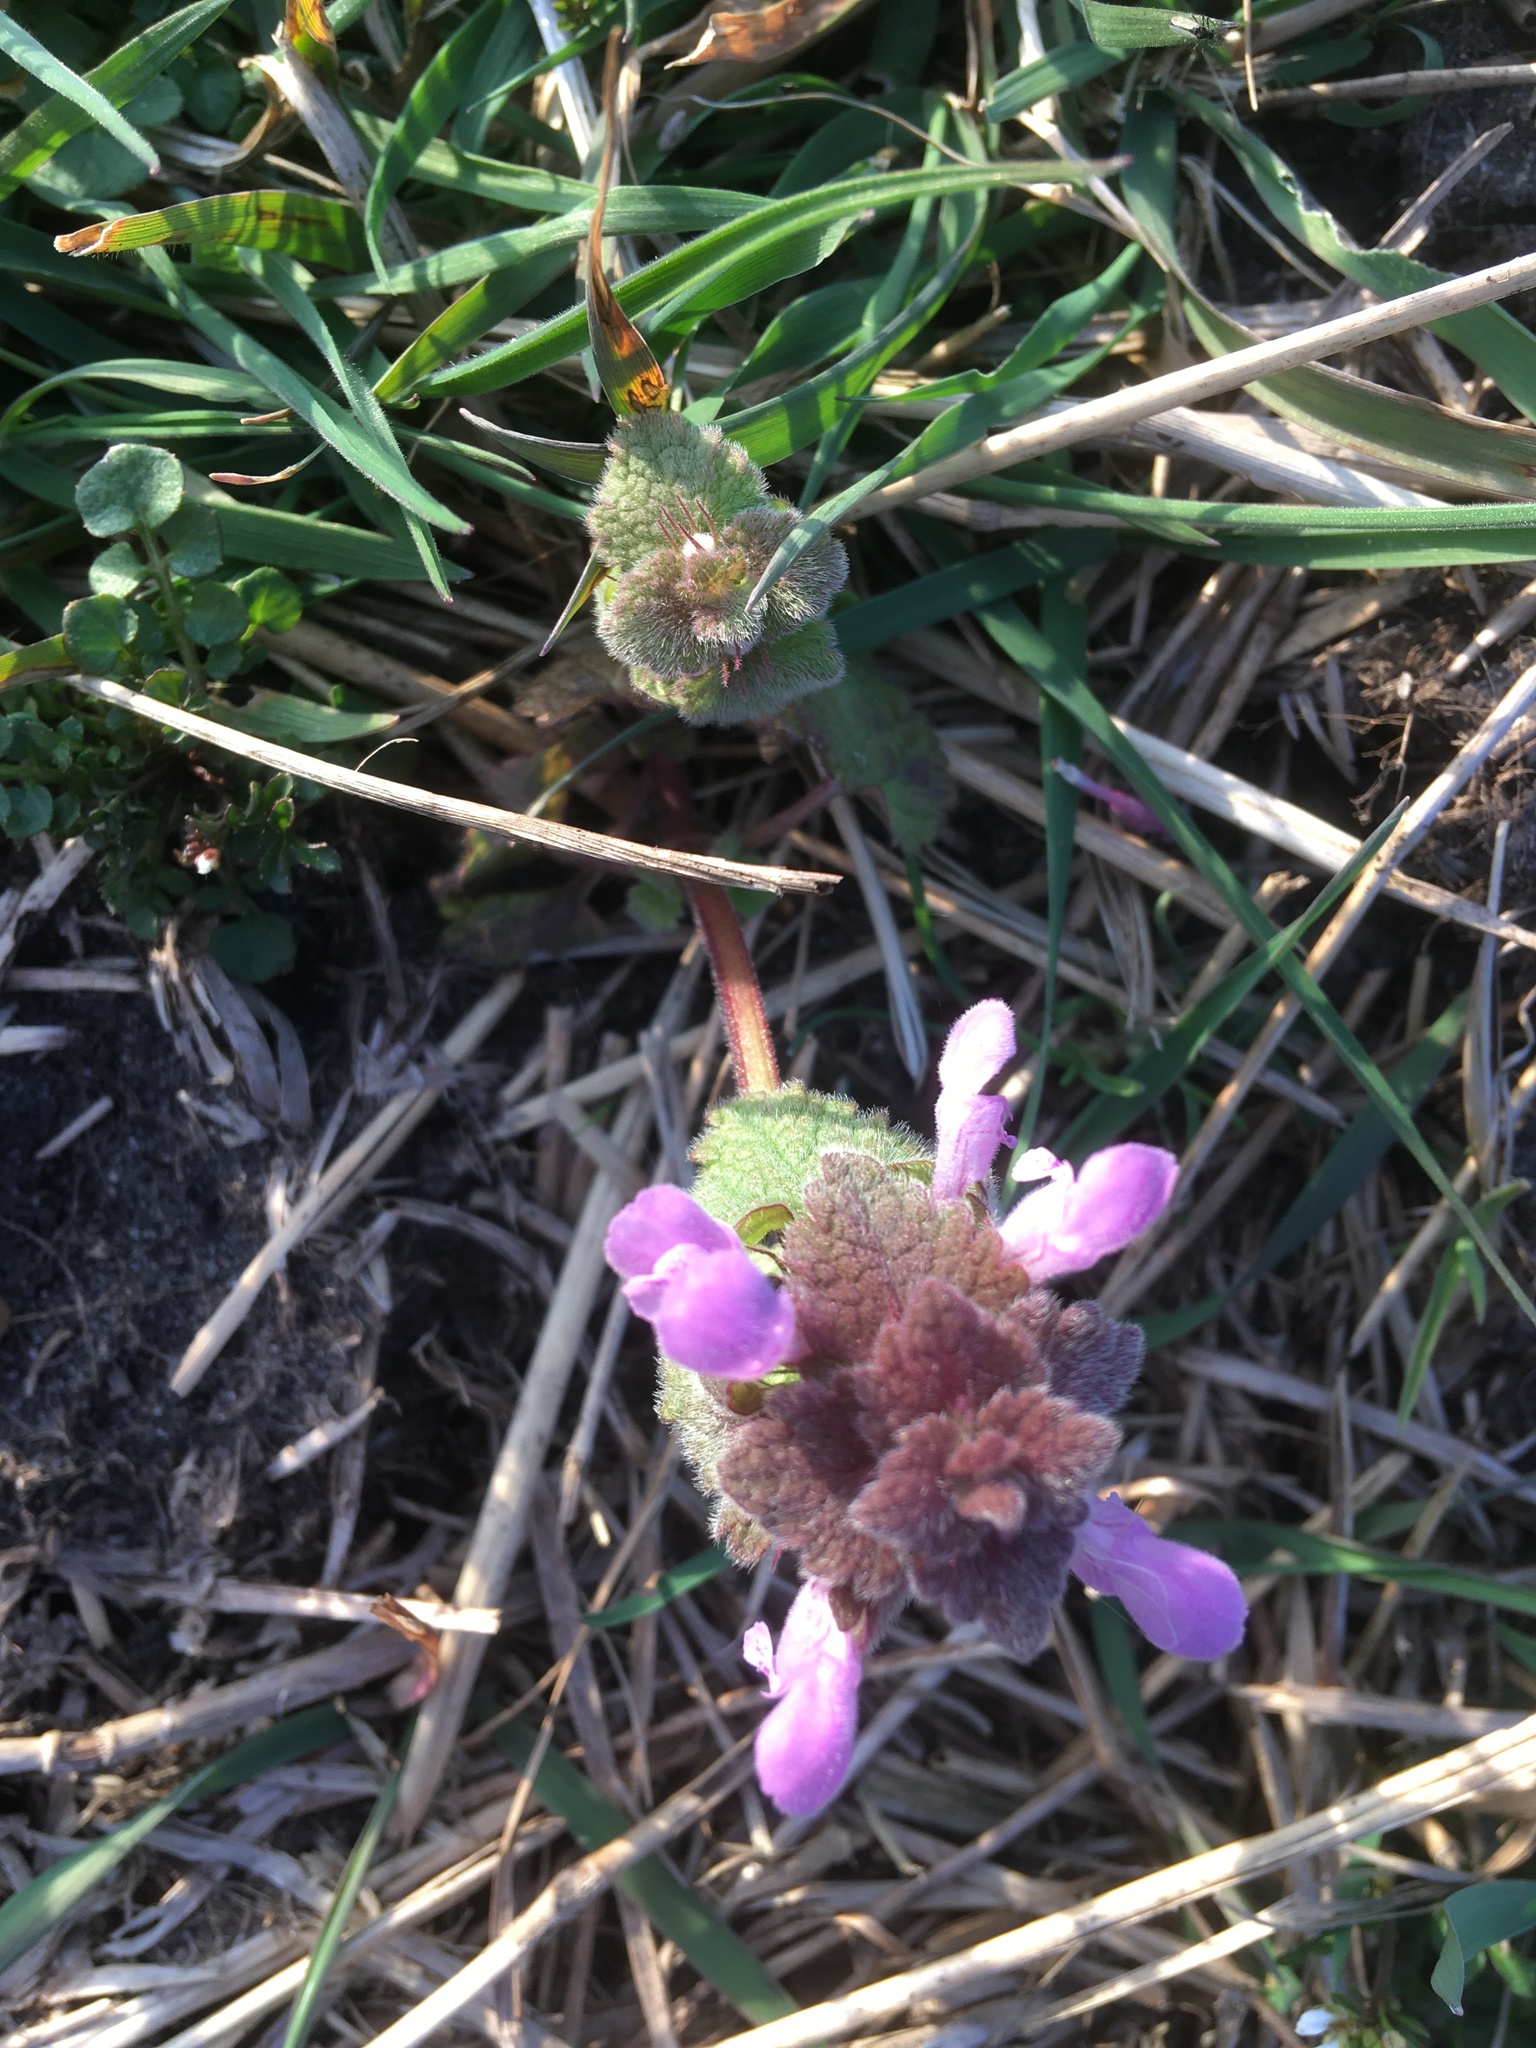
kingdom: Plantae
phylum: Tracheophyta
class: Magnoliopsida
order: Lamiales
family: Lamiaceae
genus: Lamium
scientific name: Lamium purpureum
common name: Red dead-nettle
